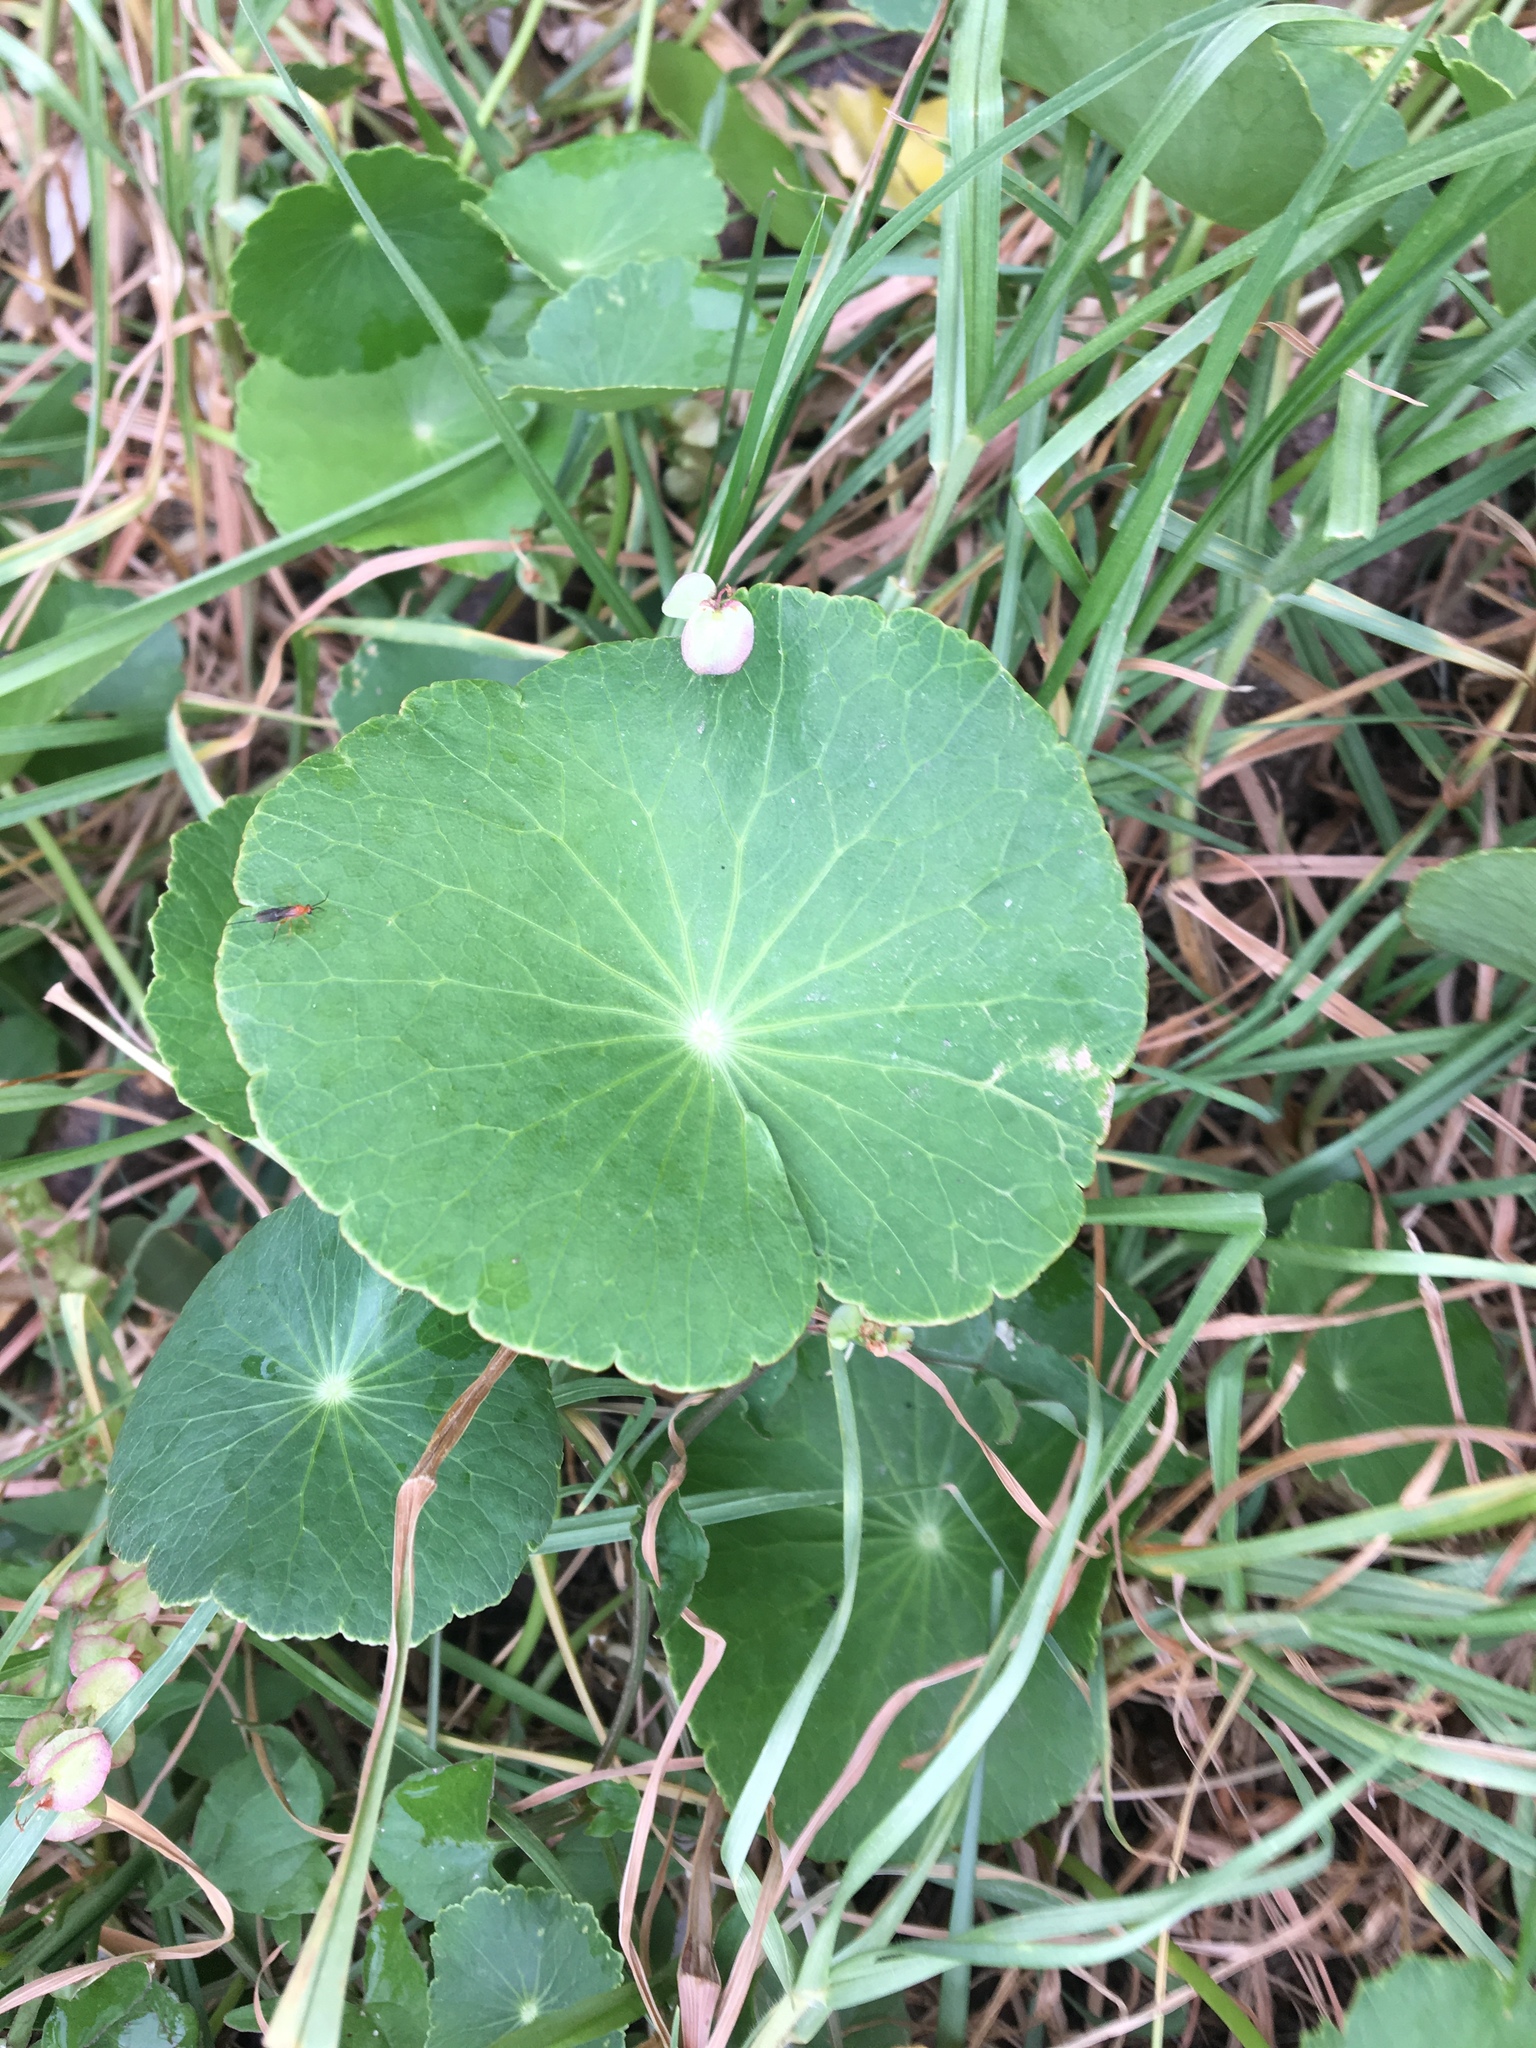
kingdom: Plantae
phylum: Tracheophyta
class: Magnoliopsida
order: Apiales
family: Araliaceae
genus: Hydrocotyle
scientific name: Hydrocotyle bonariensis
